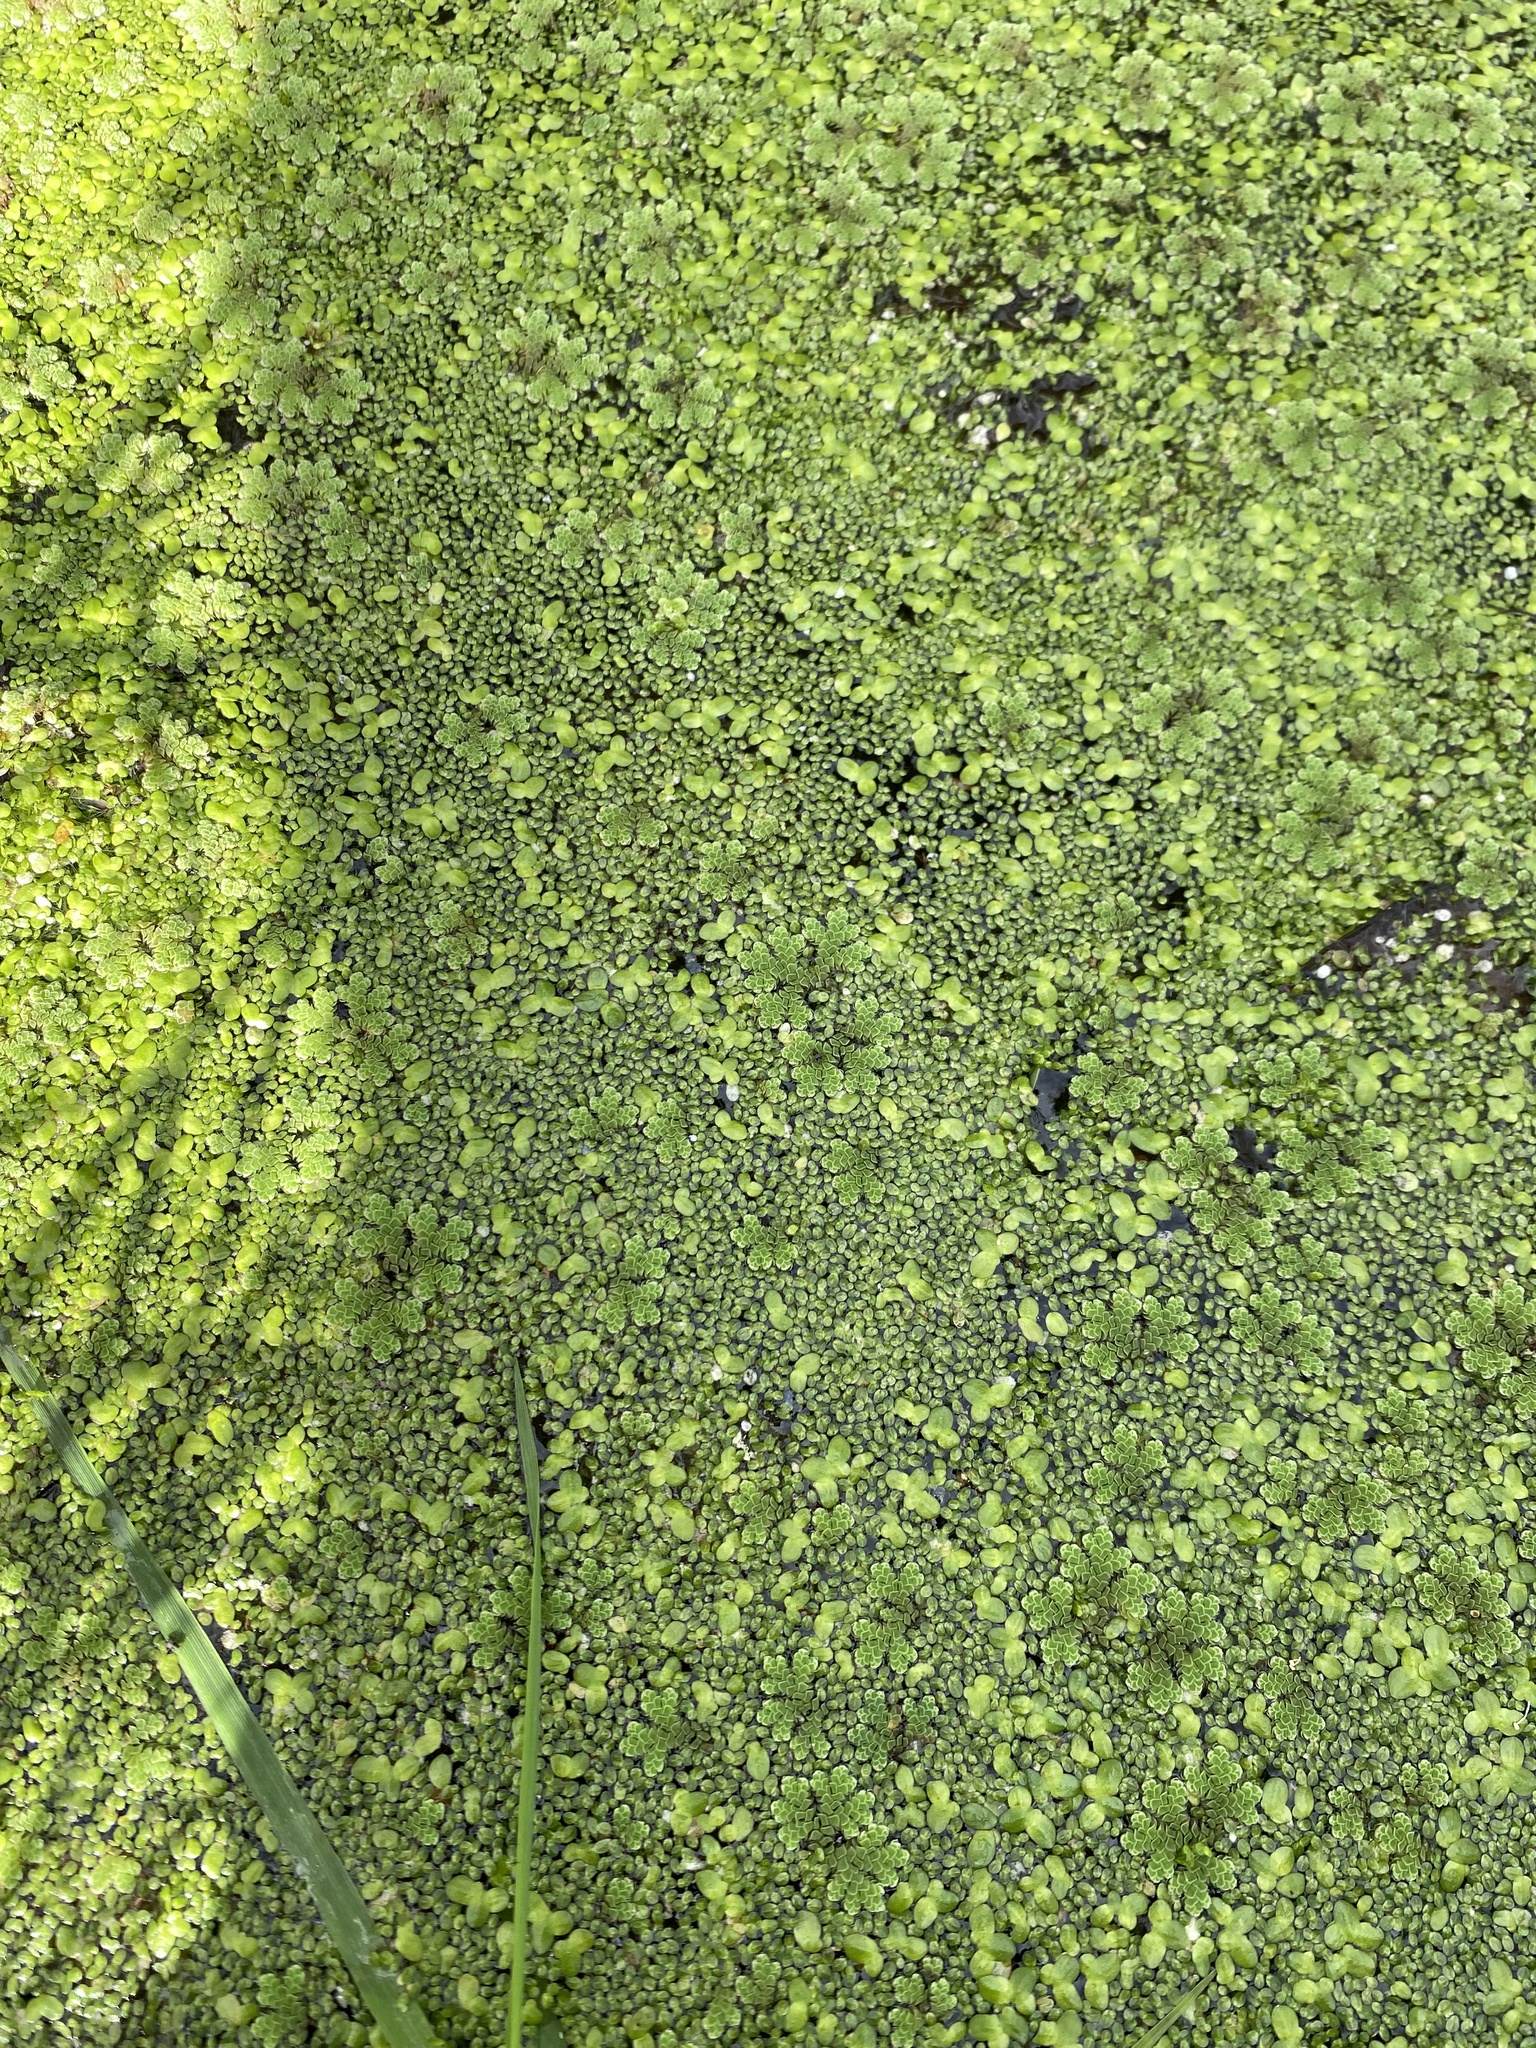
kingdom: Plantae
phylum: Tracheophyta
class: Polypodiopsida
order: Salviniales
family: Salviniaceae
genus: Azolla
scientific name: Azolla rubra
